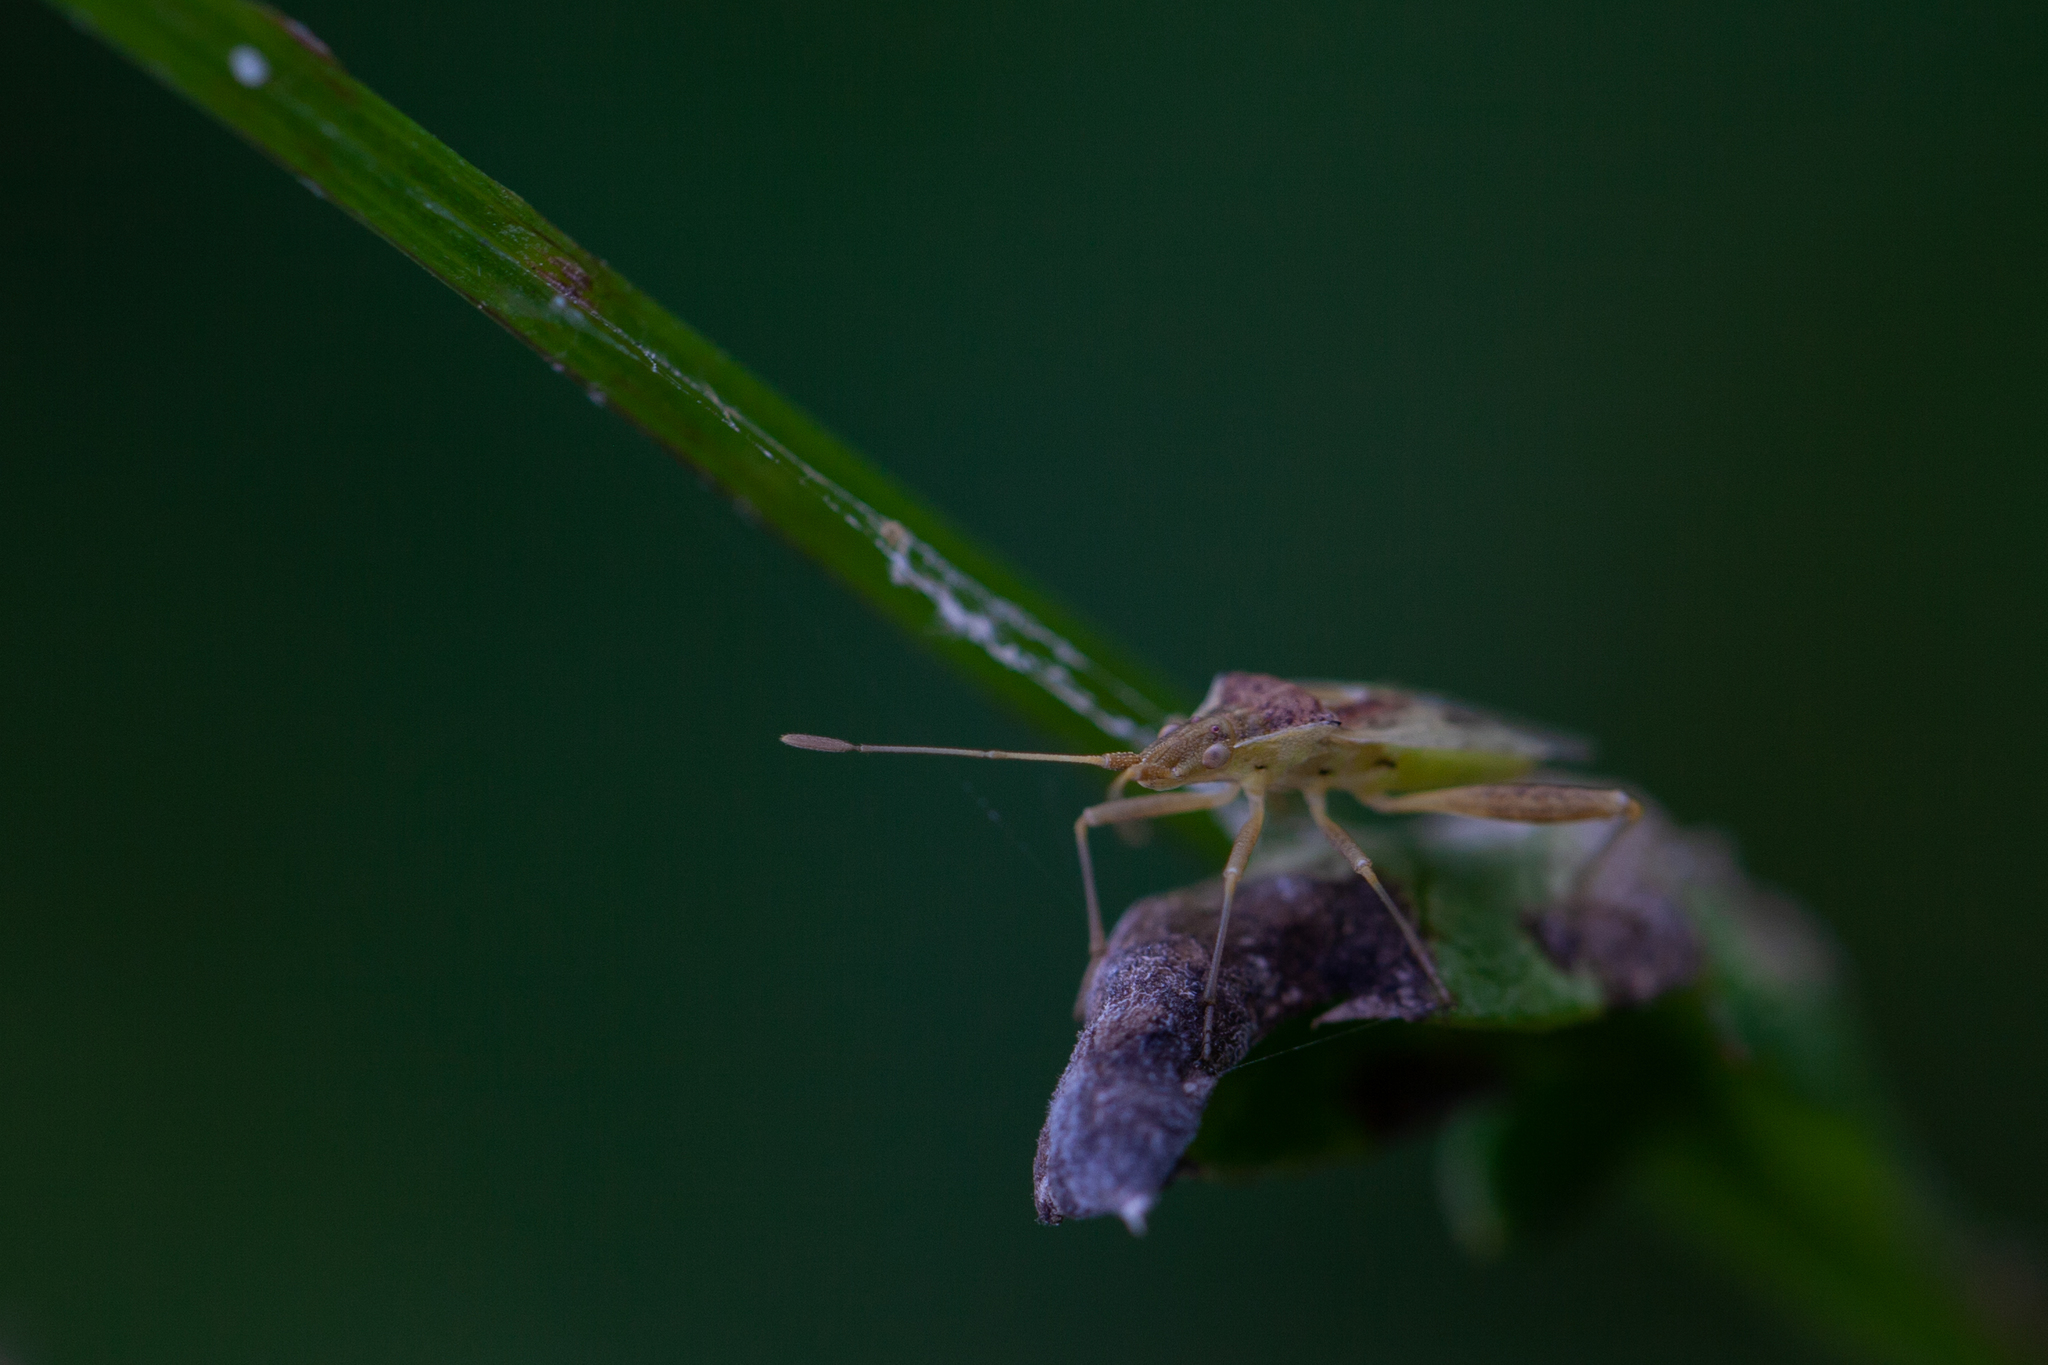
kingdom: Animalia
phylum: Arthropoda
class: Insecta
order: Hemiptera
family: Rhopalidae
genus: Harmostes
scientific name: Harmostes reflexulus
